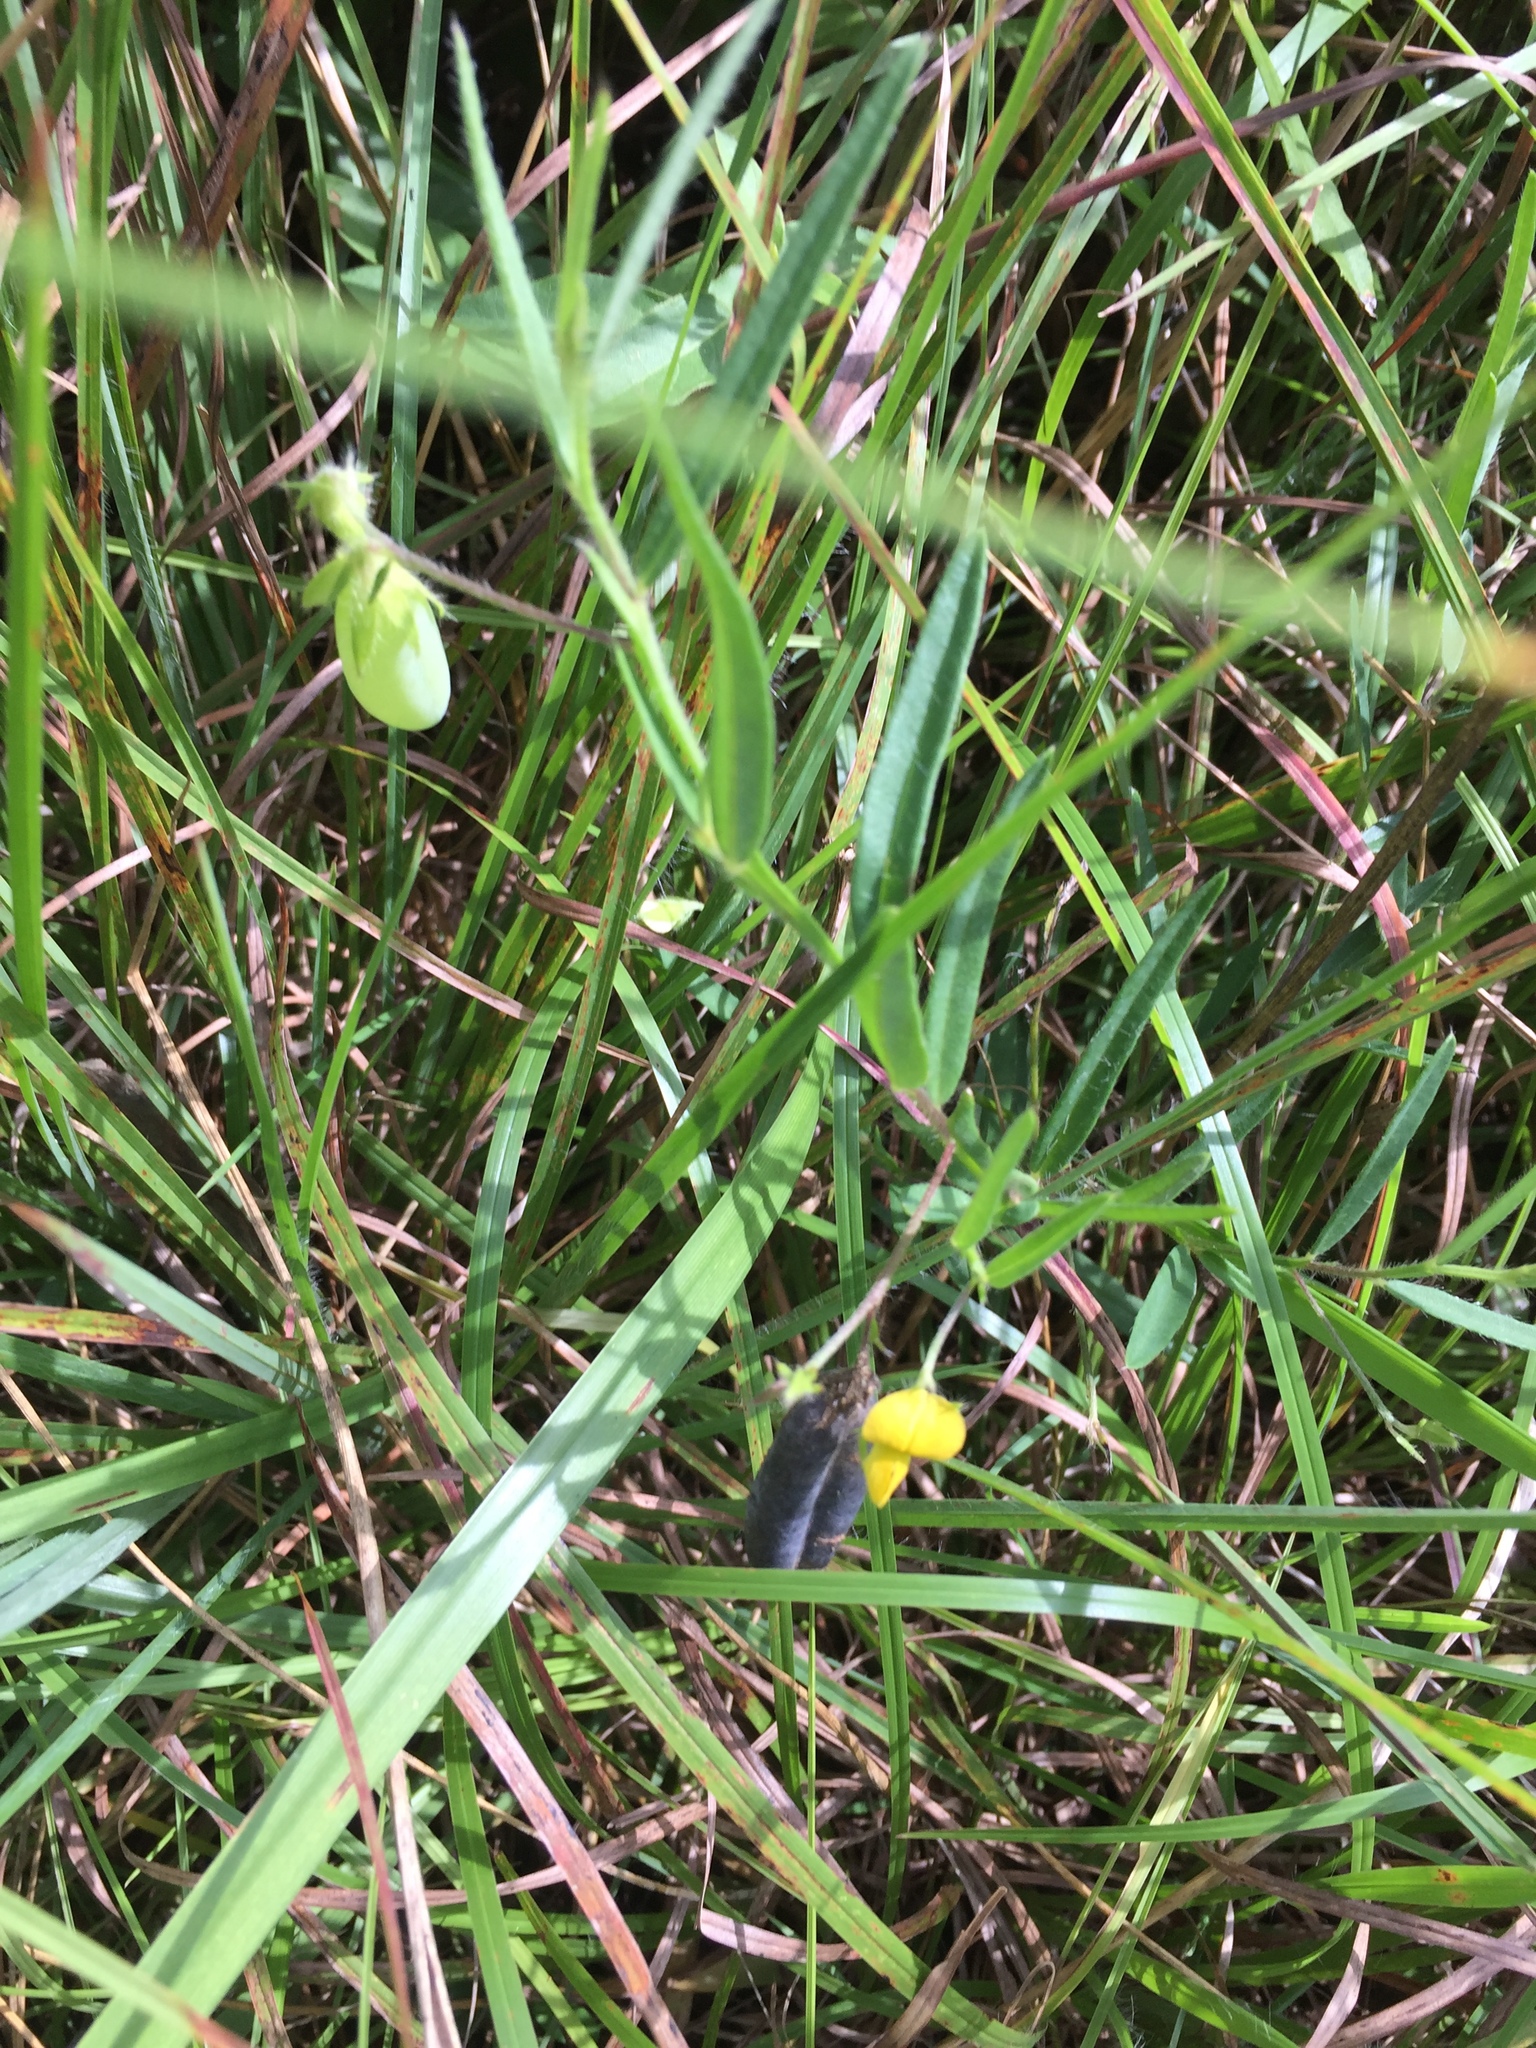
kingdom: Plantae
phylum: Tracheophyta
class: Magnoliopsida
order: Fabales
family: Fabaceae
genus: Crotalaria
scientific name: Crotalaria sagittalis
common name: Arrowhead rattlebox
